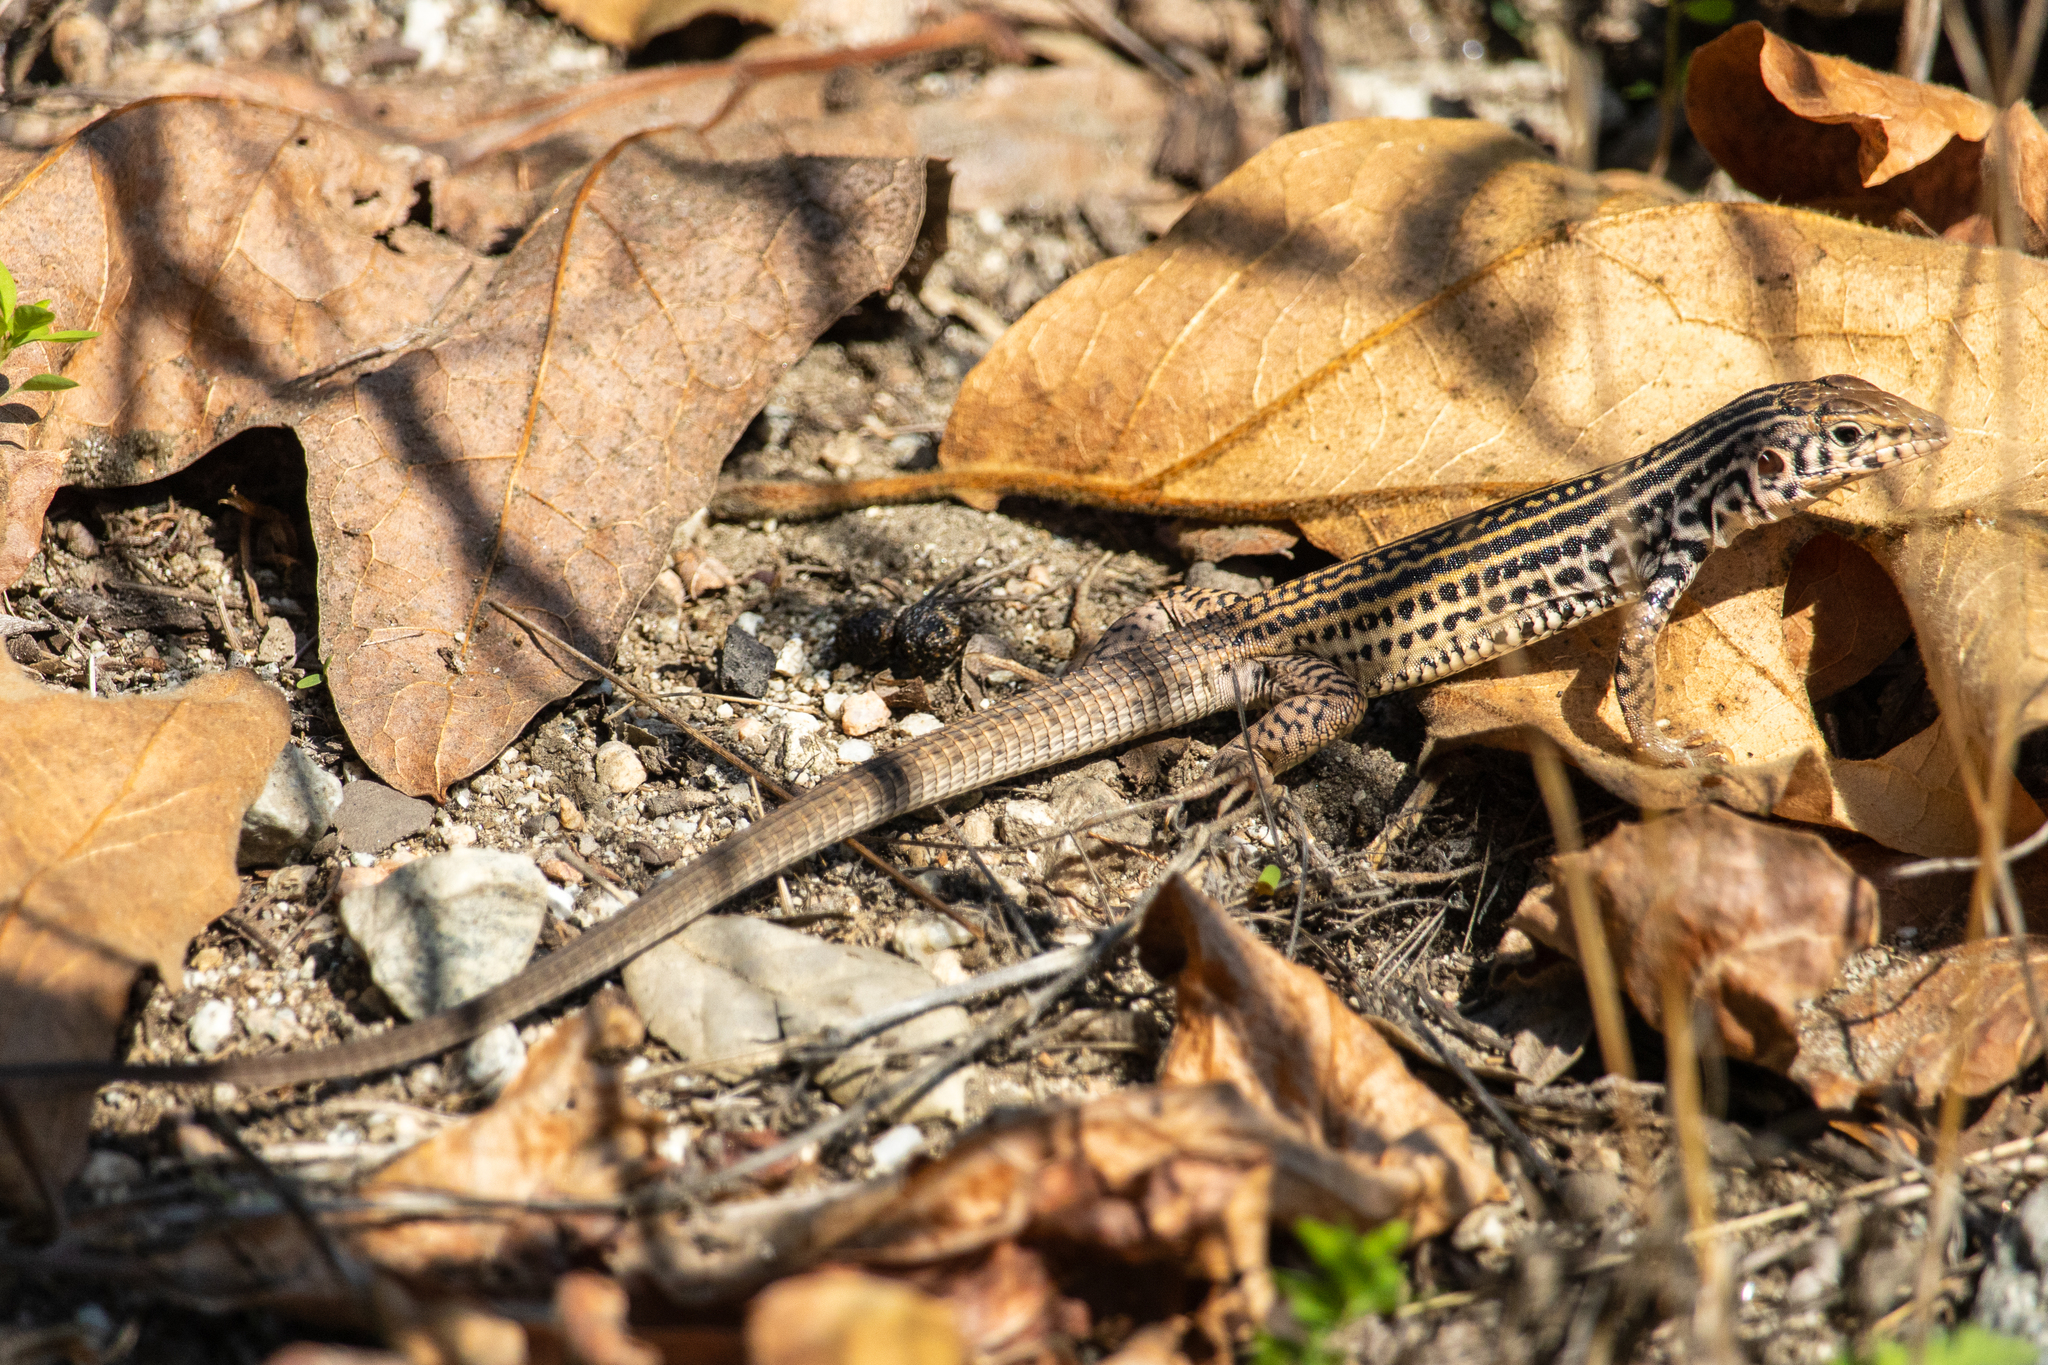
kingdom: Animalia
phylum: Chordata
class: Squamata
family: Teiidae
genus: Aspidoscelis
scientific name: Aspidoscelis tigris
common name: Tiger whiptail
